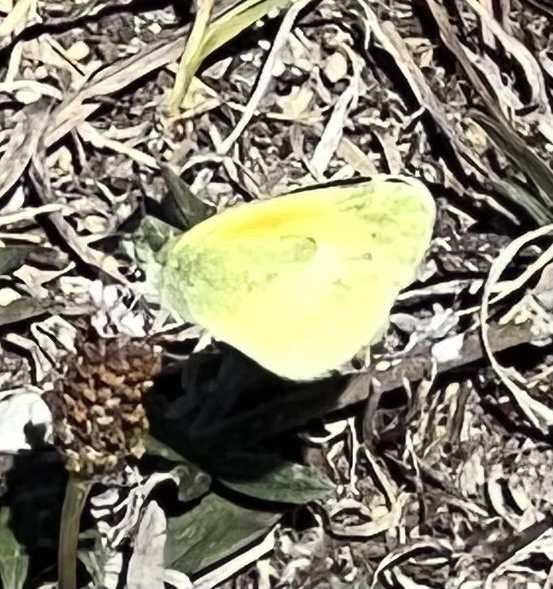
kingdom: Animalia
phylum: Arthropoda
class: Insecta
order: Lepidoptera
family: Pieridae
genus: Nathalis
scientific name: Nathalis iole
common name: Dainty sulphur
